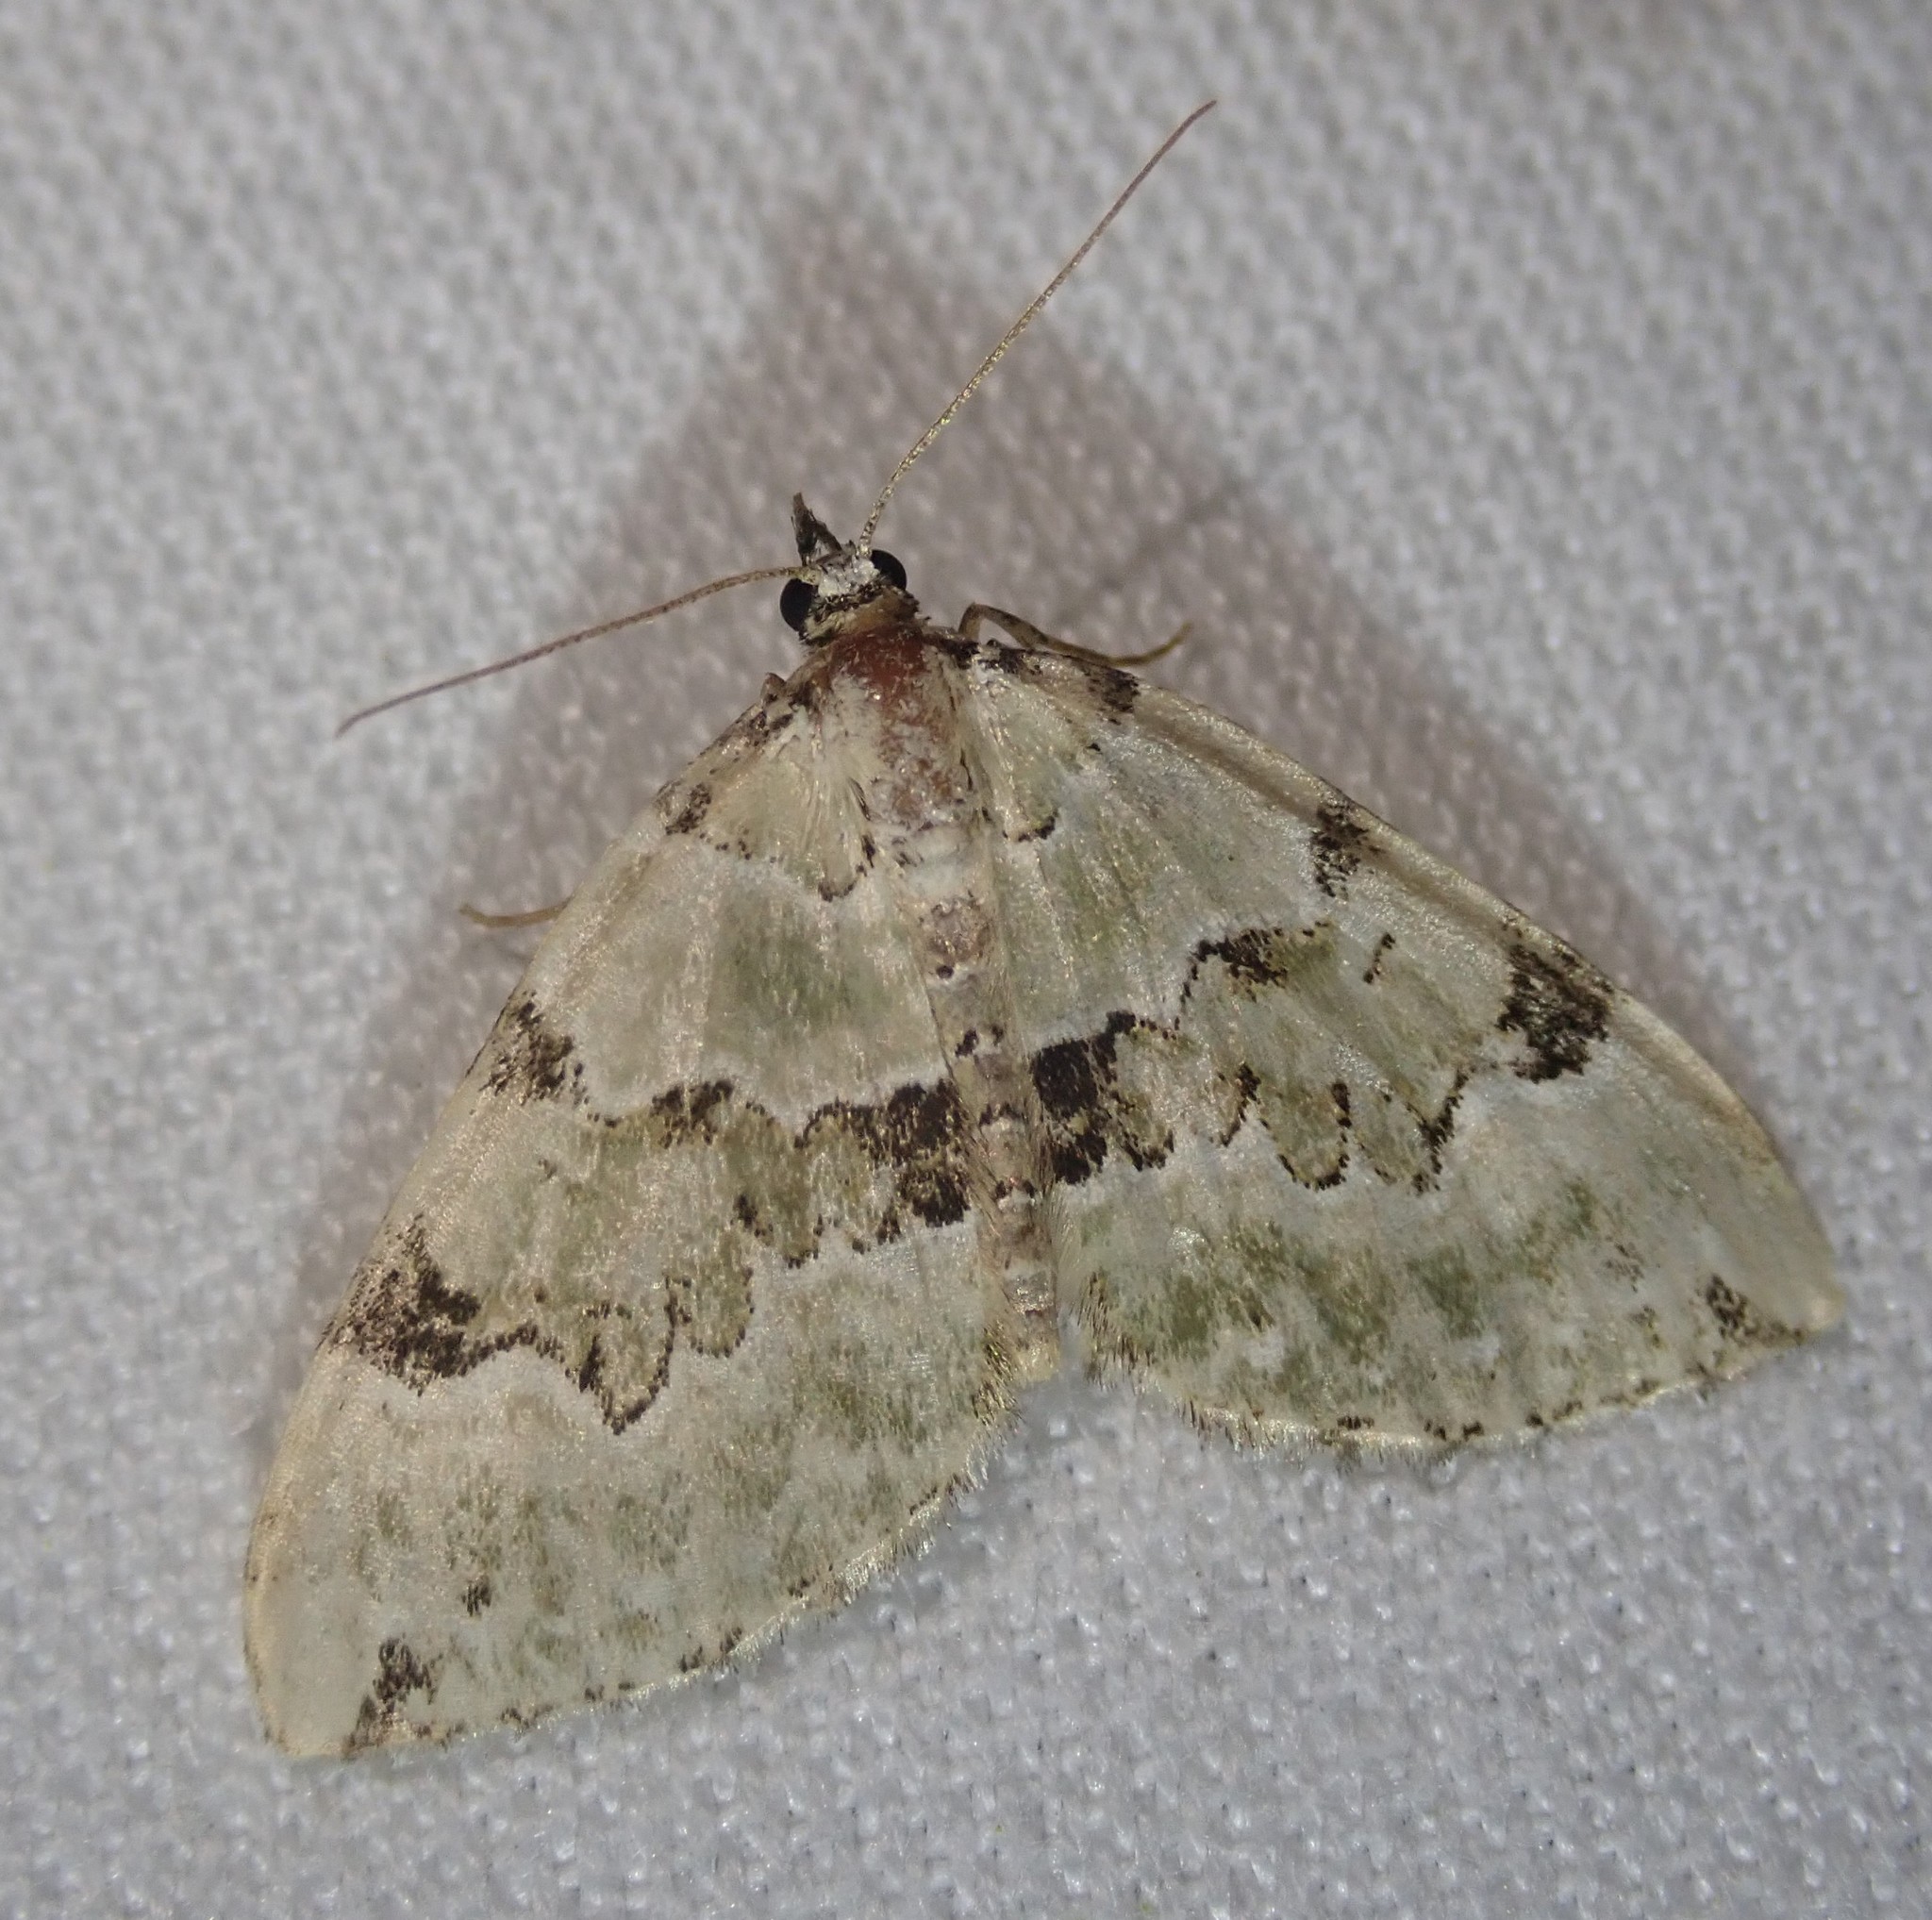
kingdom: Animalia
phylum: Arthropoda
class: Insecta
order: Lepidoptera
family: Geometridae
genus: Colostygia
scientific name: Colostygia pectinataria
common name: Green carpet
